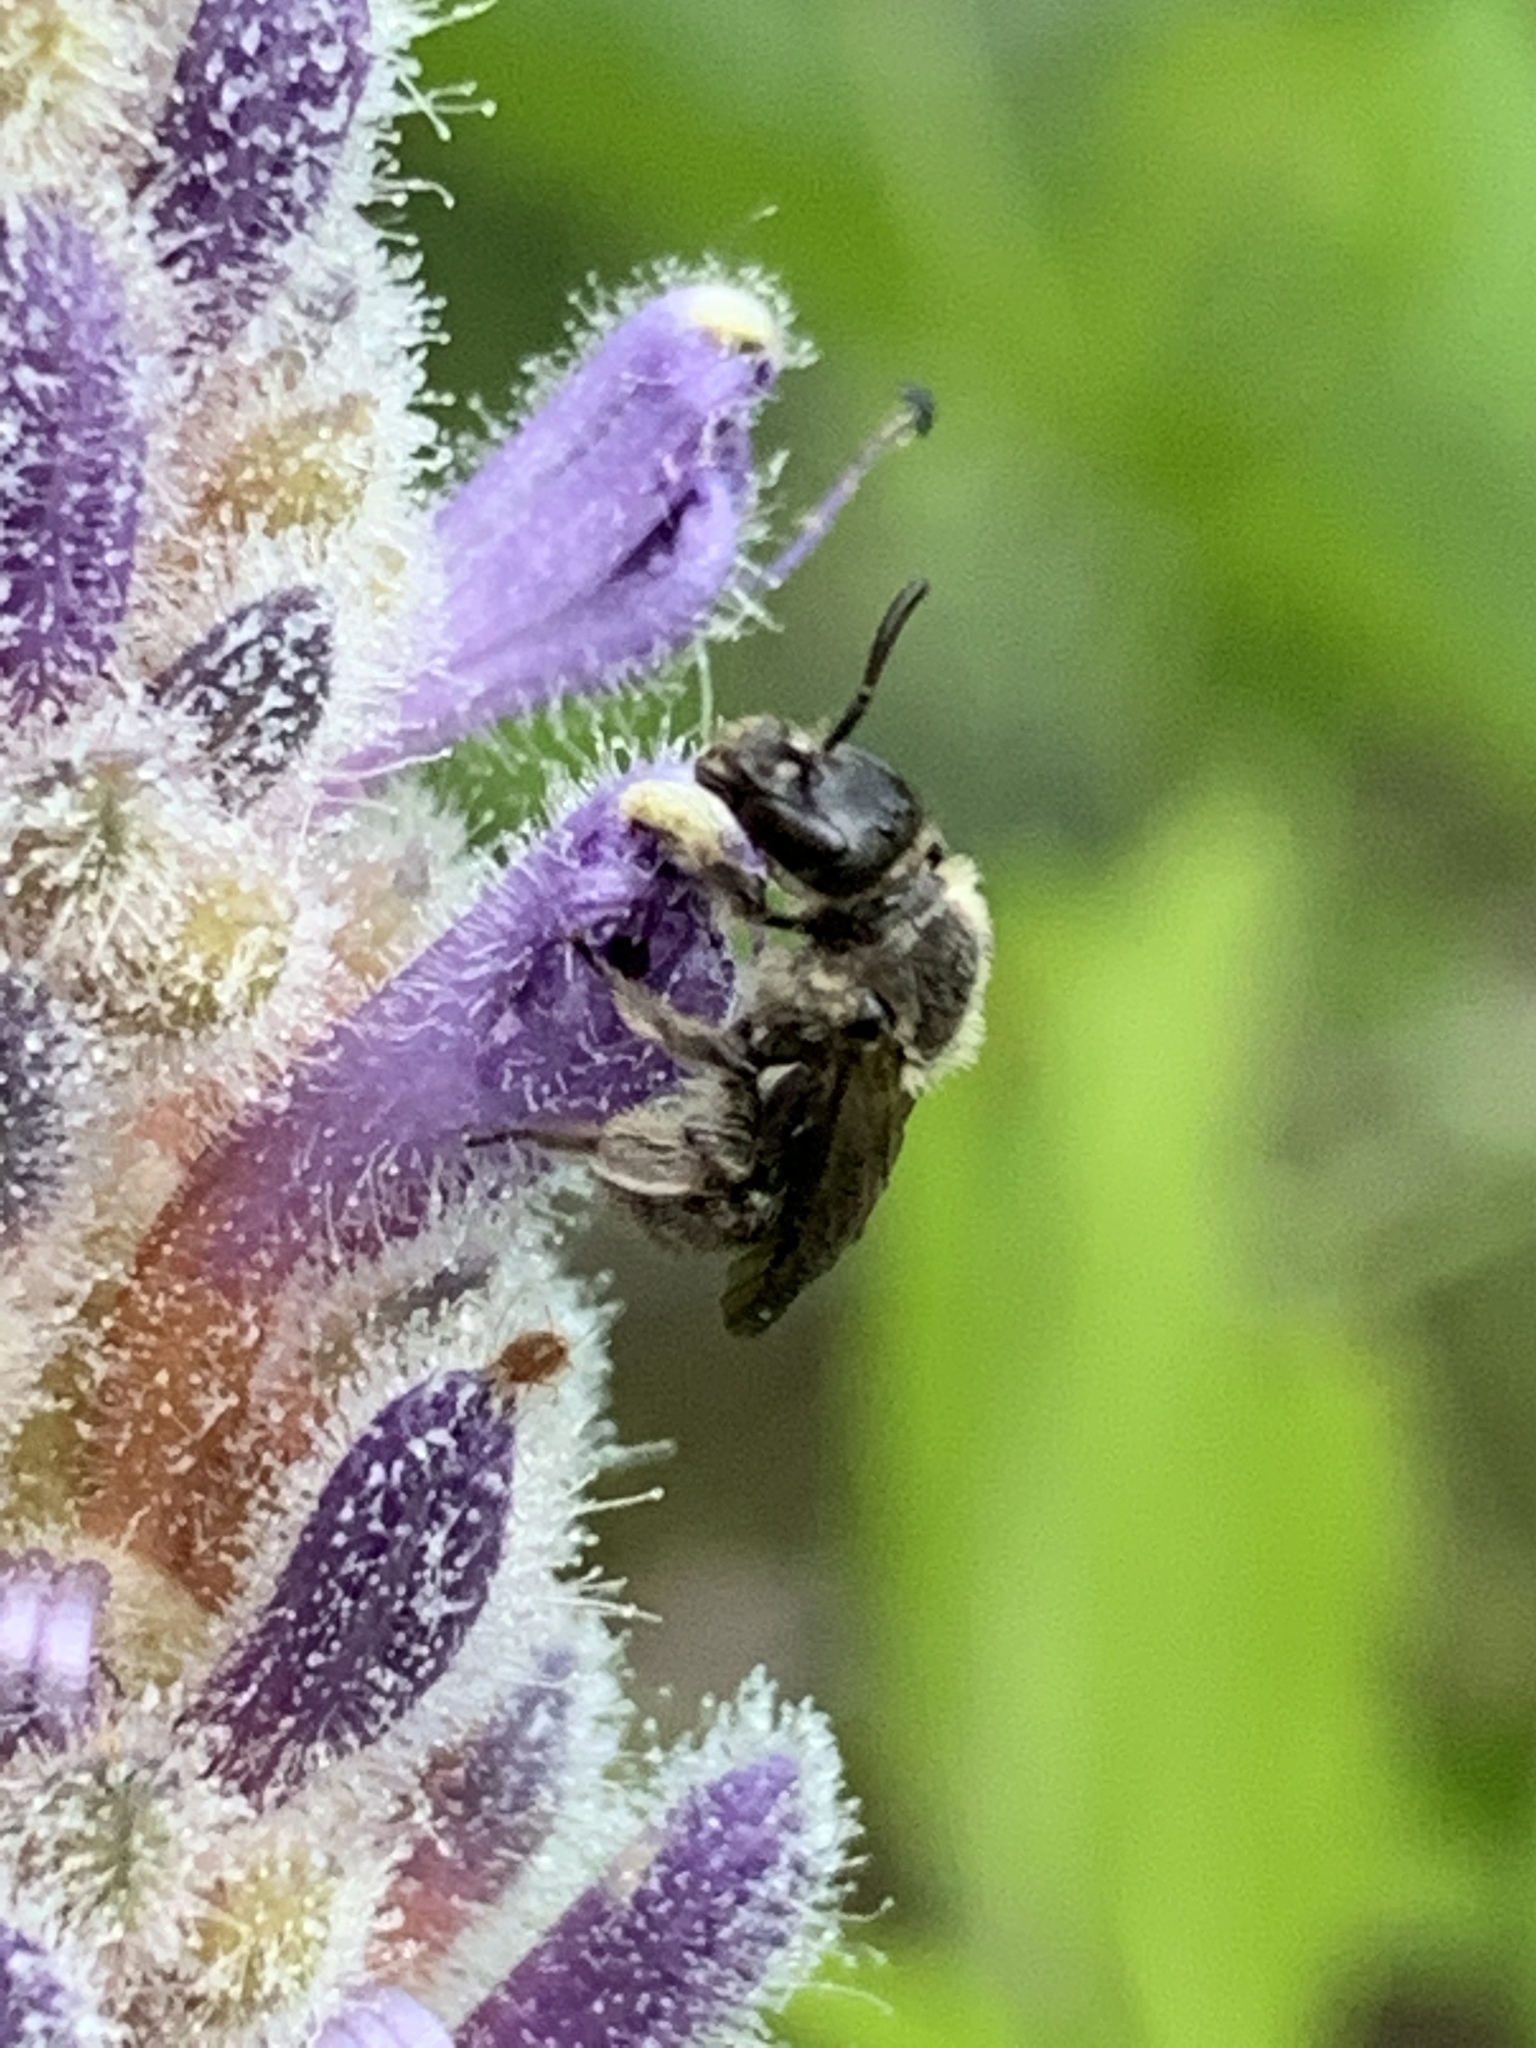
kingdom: Animalia
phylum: Arthropoda
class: Insecta
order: Hymenoptera
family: Halictidae
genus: Dufourea
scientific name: Dufourea monardae
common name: Beebalm shortface
